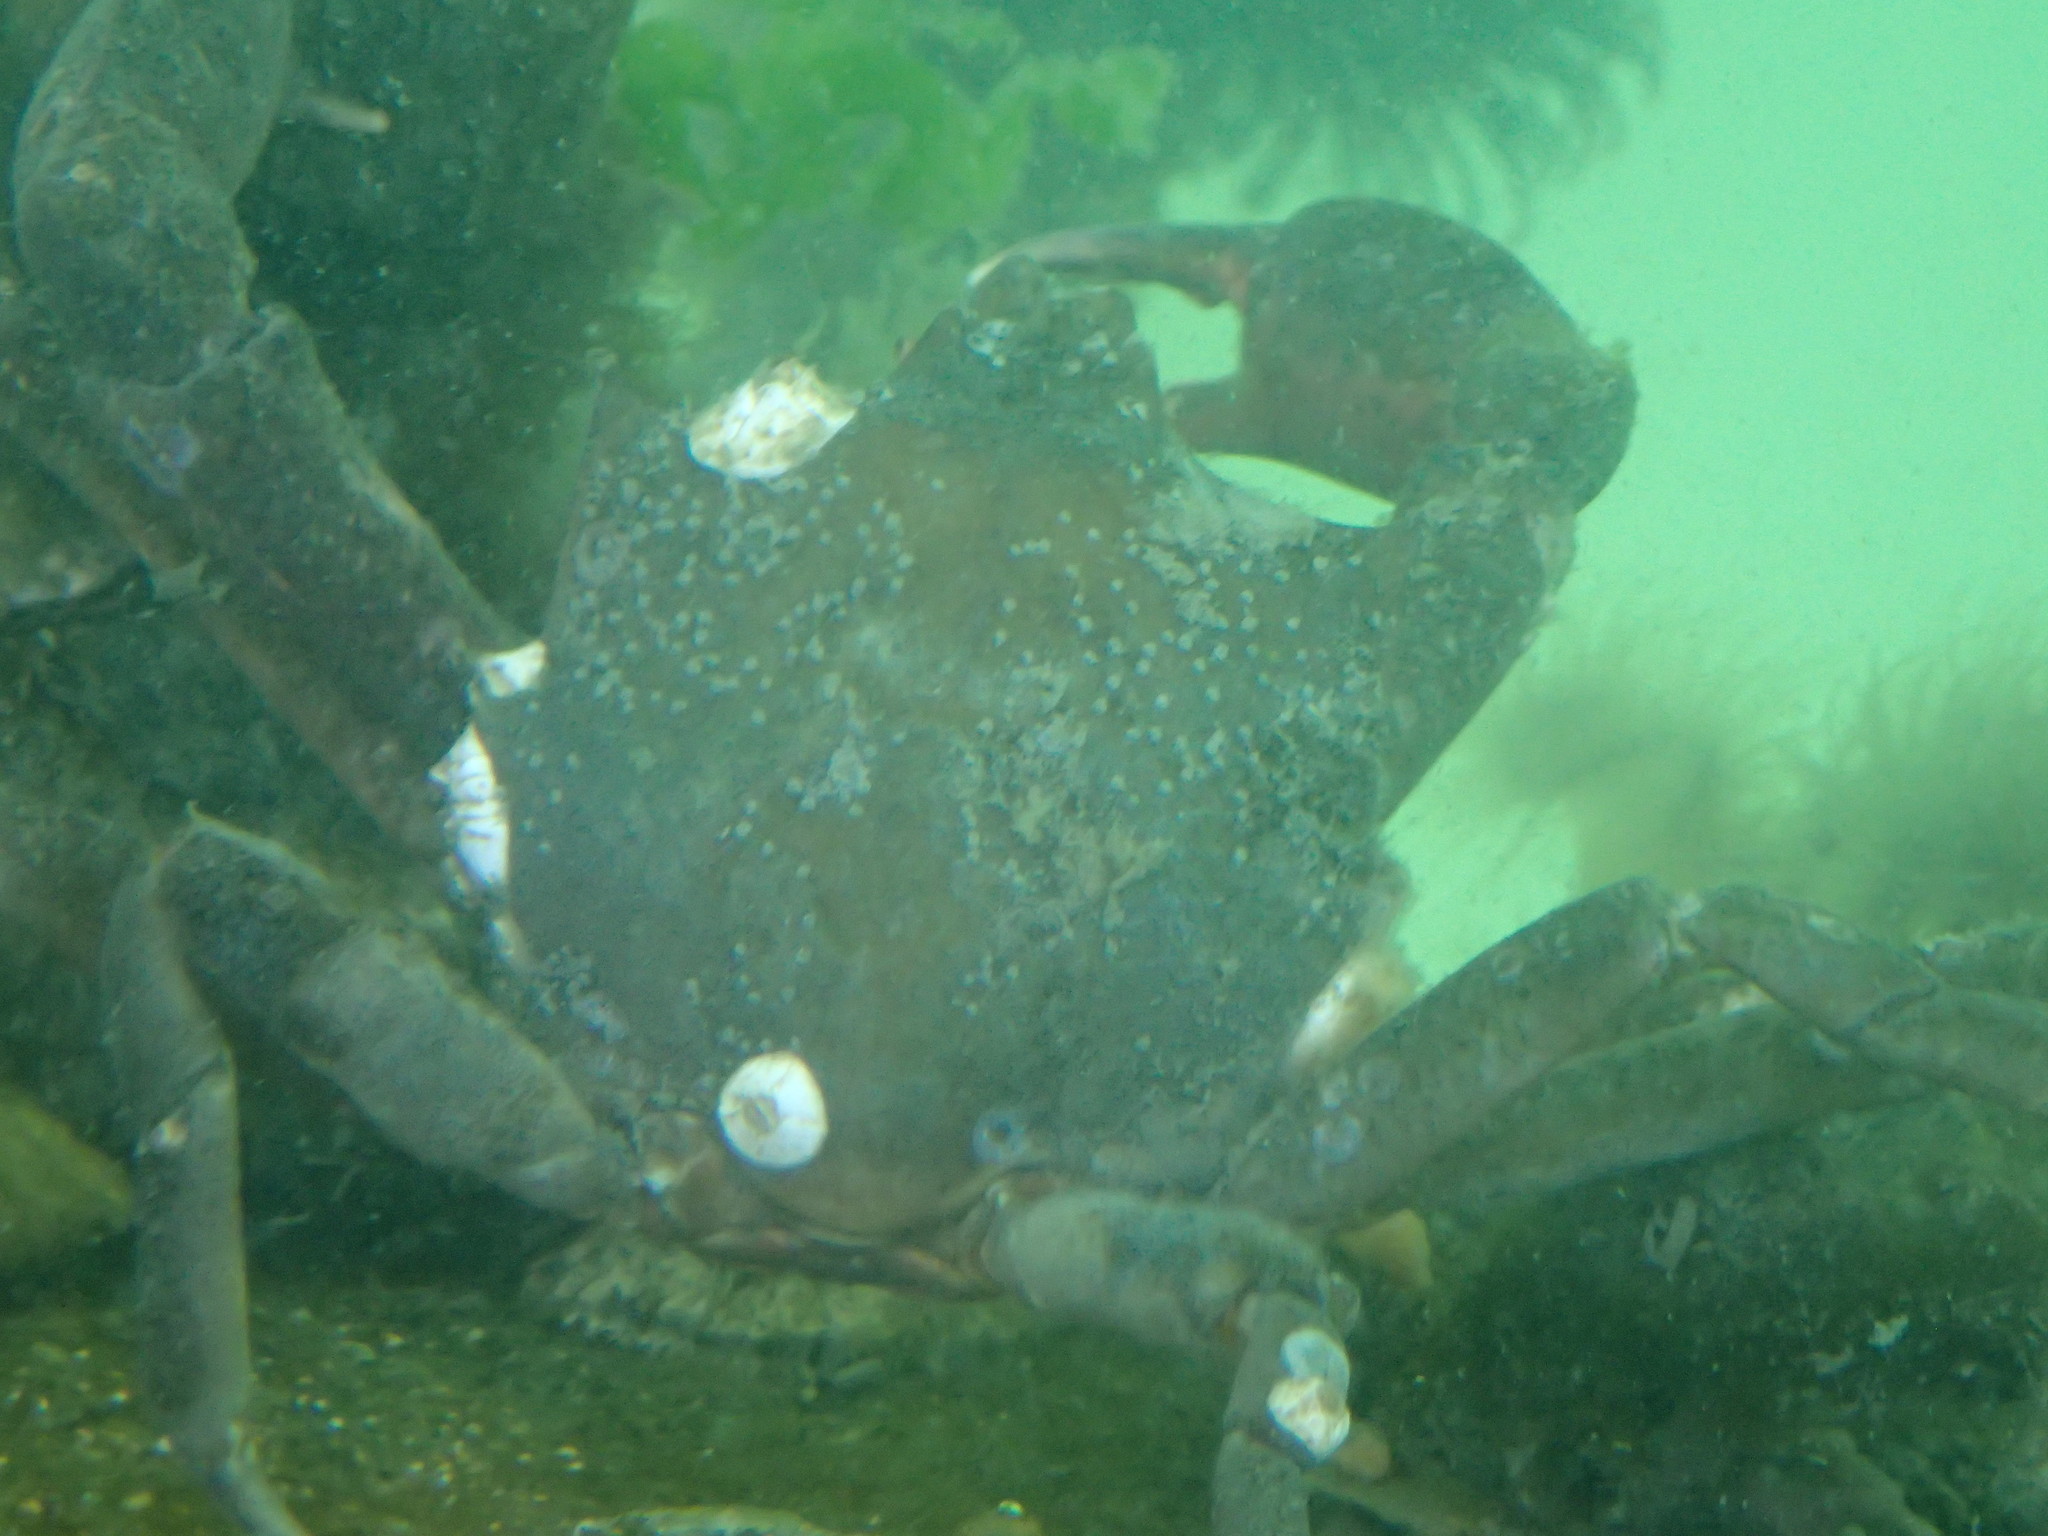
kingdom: Animalia
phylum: Arthropoda
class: Malacostraca
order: Decapoda
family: Epialtidae
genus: Pugettia
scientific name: Pugettia producta
